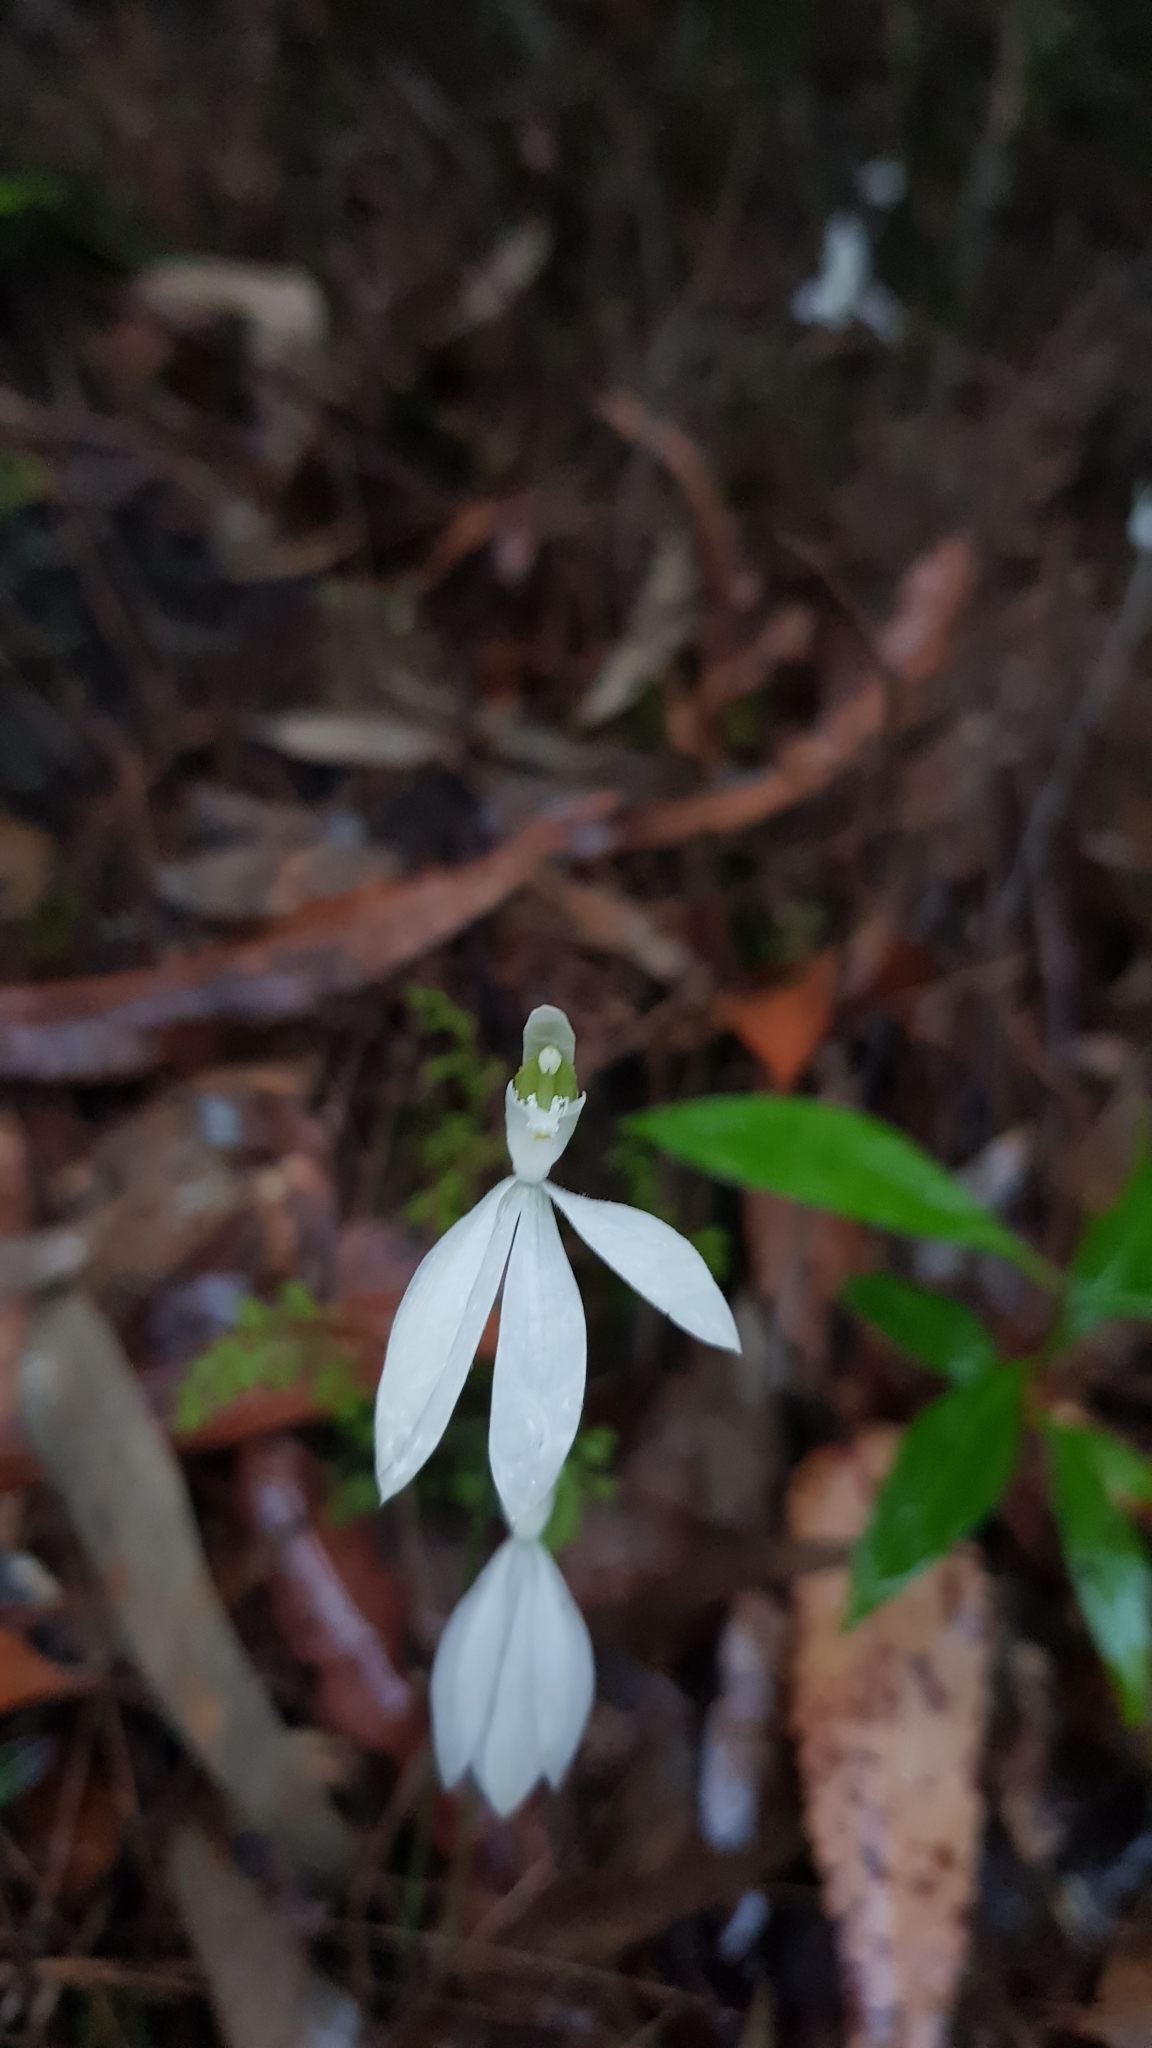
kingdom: Plantae
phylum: Tracheophyta
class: Liliopsida
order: Asparagales
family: Orchidaceae
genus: Caladenia
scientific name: Caladenia catenata
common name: White caladenia
